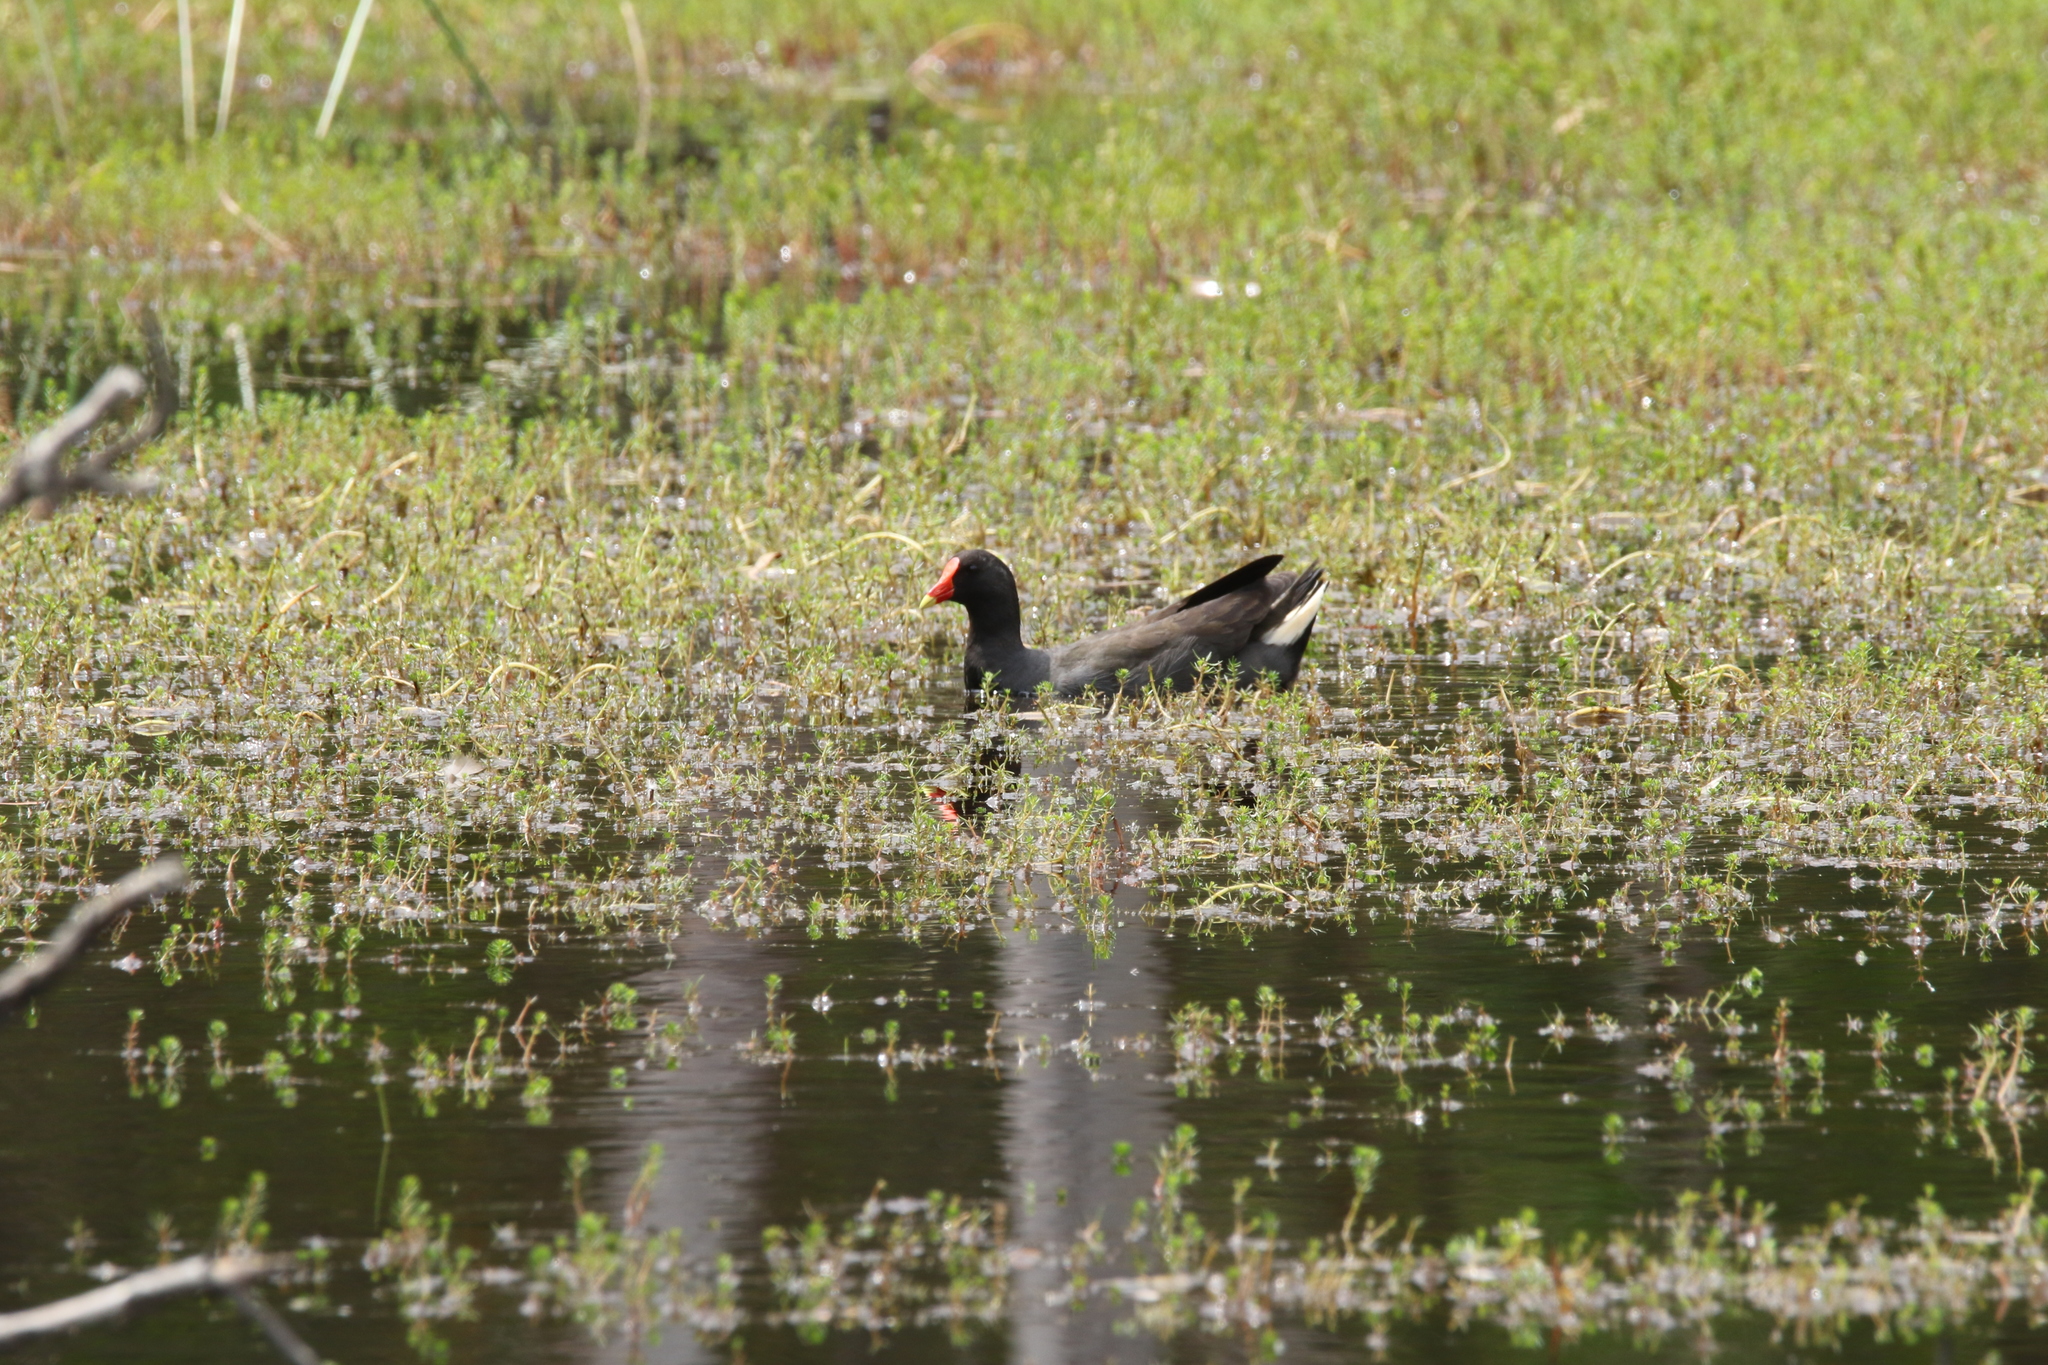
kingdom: Animalia
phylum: Chordata
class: Aves
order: Gruiformes
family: Rallidae
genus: Gallinula
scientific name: Gallinula tenebrosa
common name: Dusky moorhen
